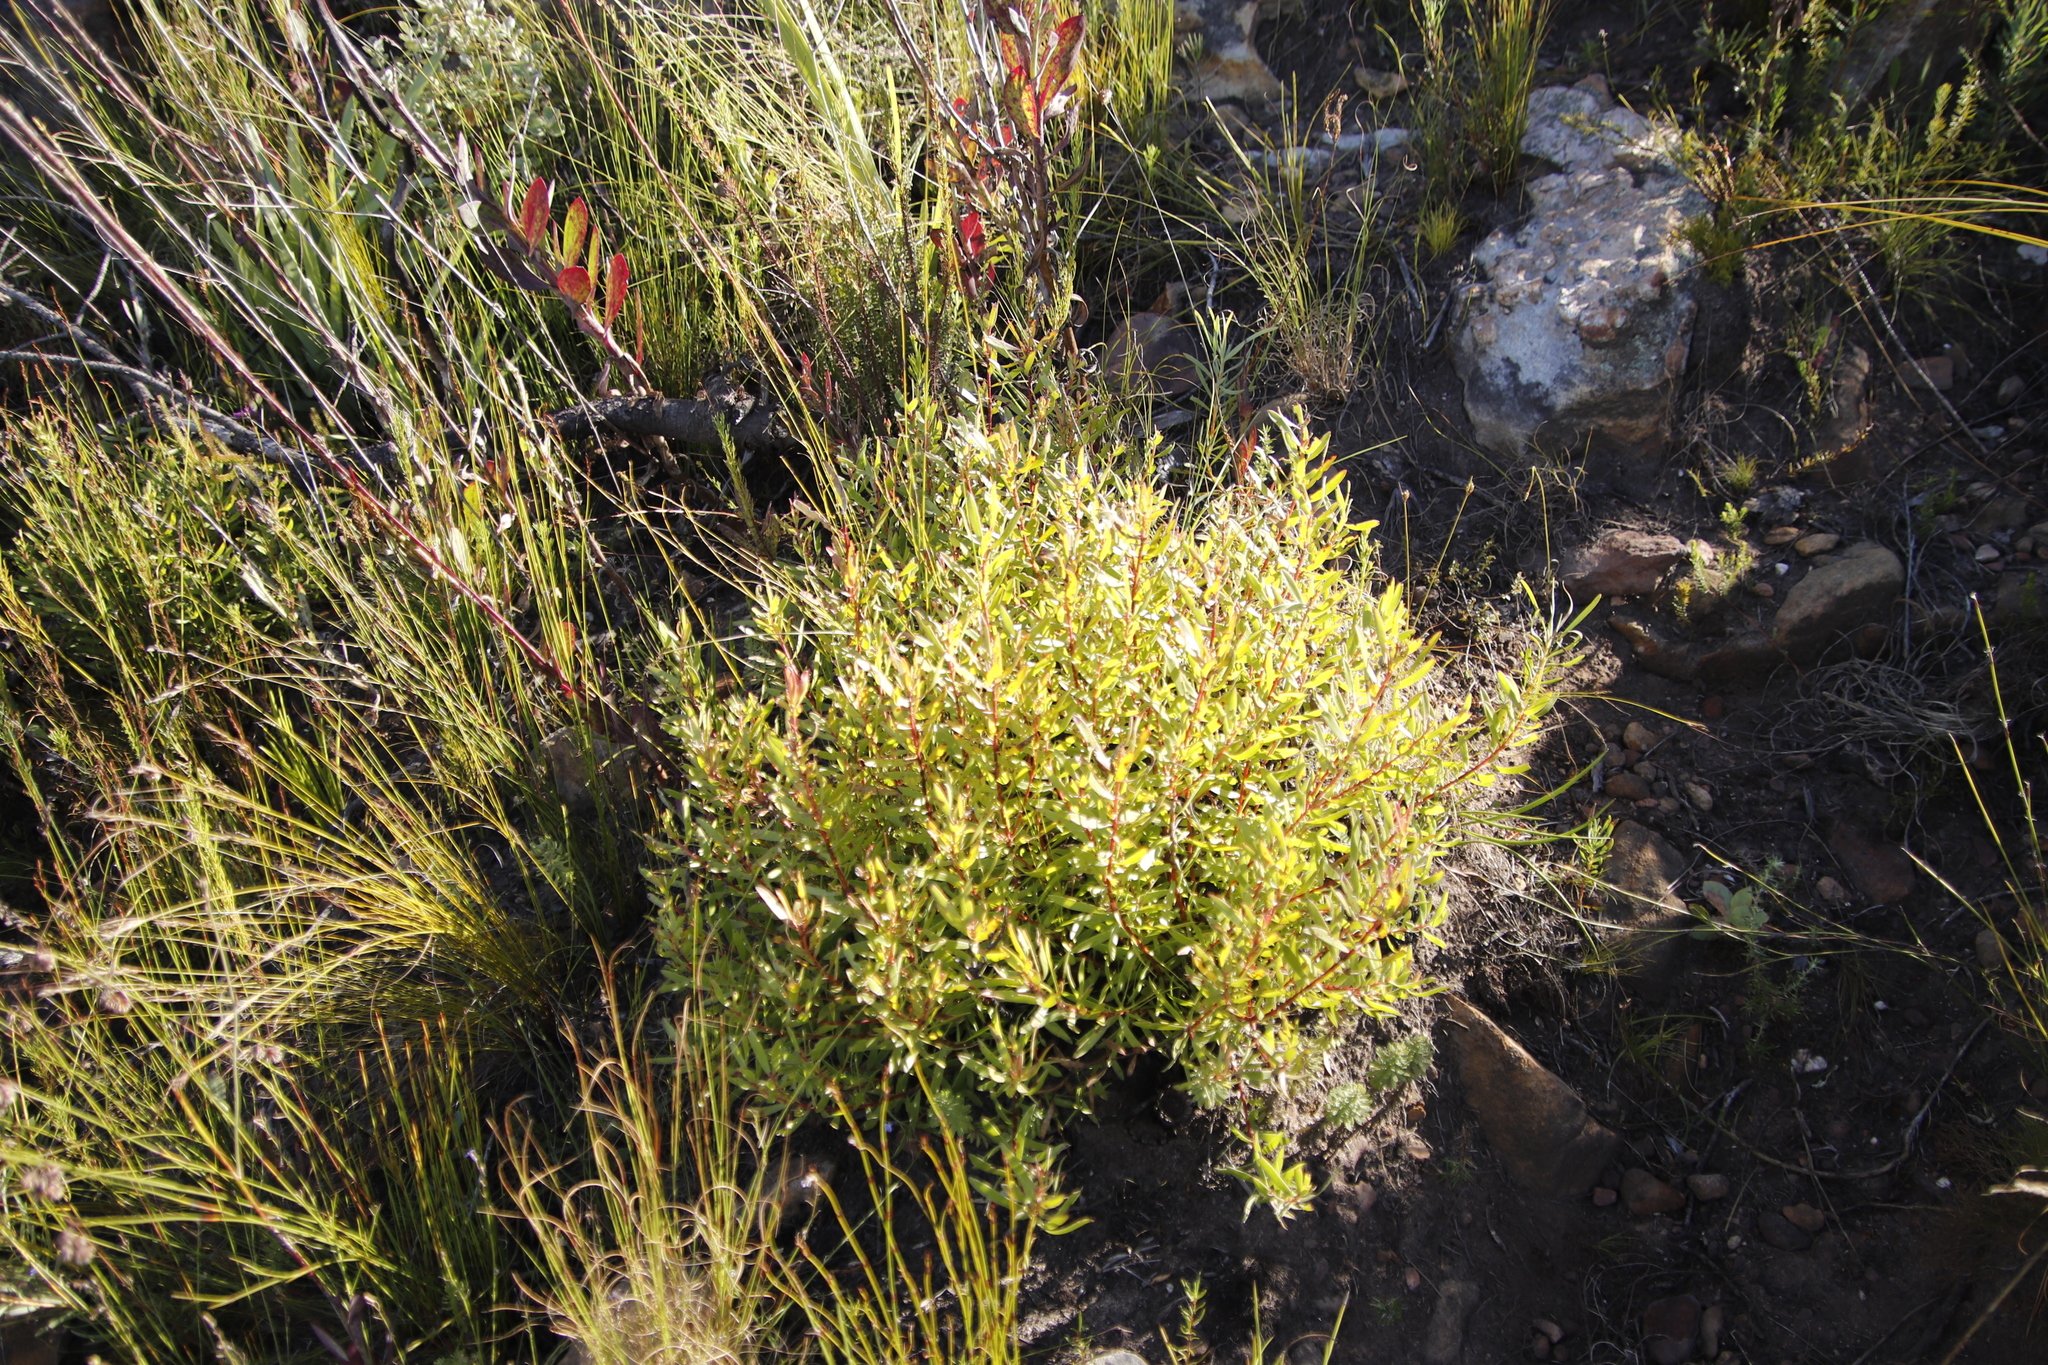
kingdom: Plantae
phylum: Tracheophyta
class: Magnoliopsida
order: Proteales
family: Proteaceae
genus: Leucadendron
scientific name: Leucadendron spissifolium
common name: Spear-leaf conebush
